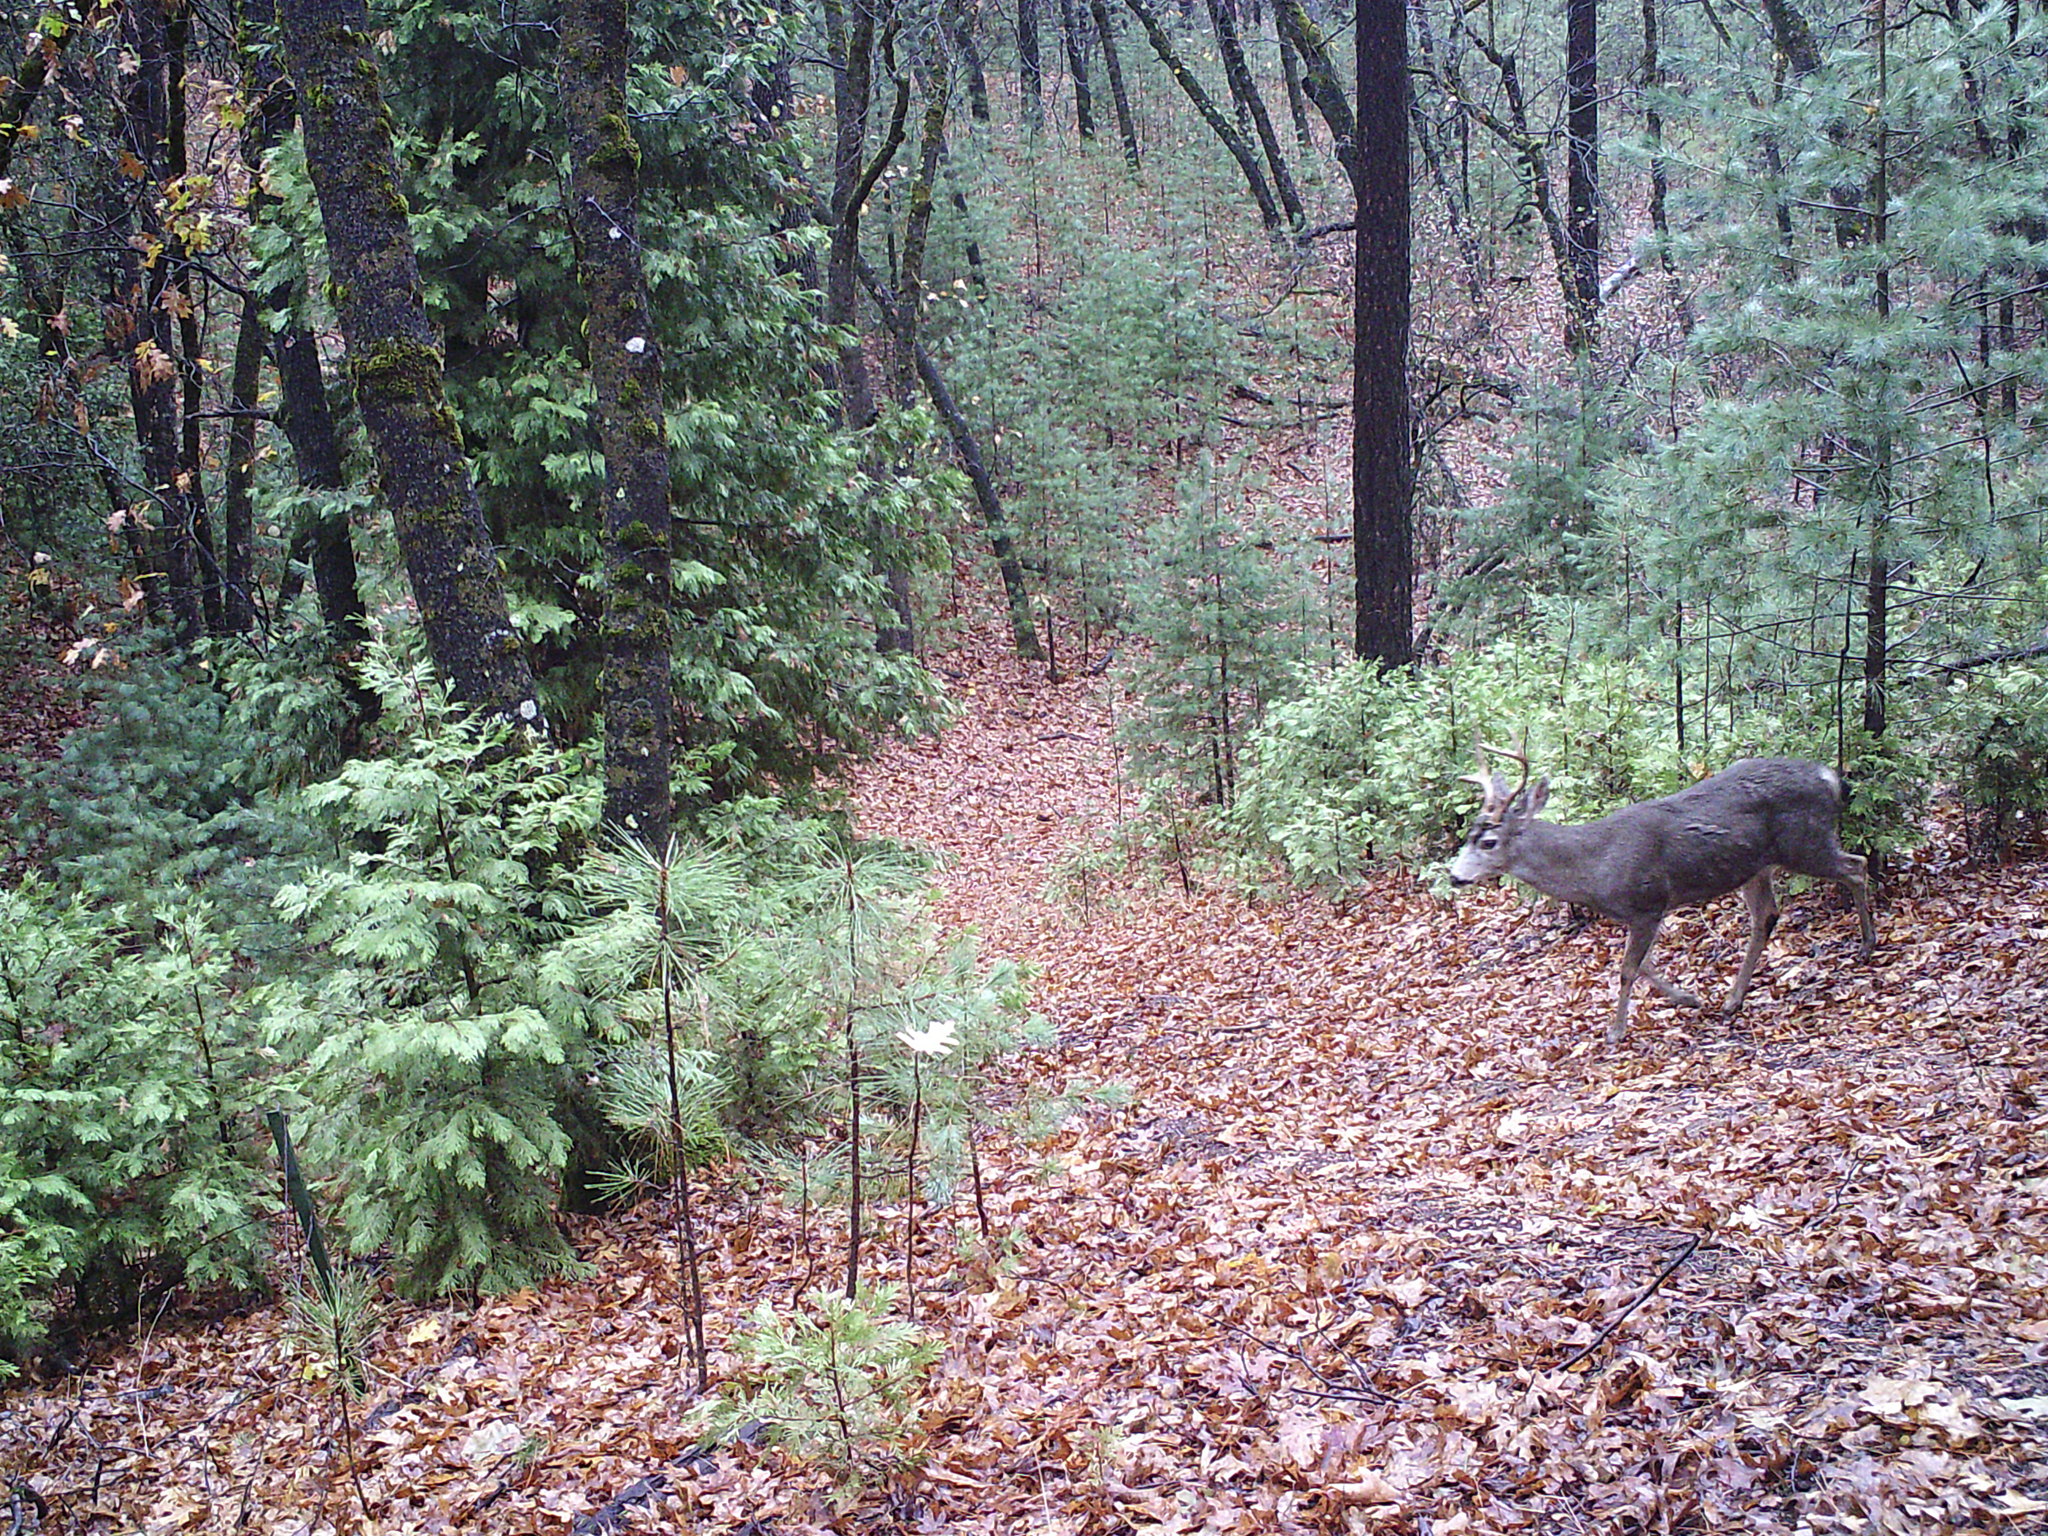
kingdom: Animalia
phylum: Chordata
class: Mammalia
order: Artiodactyla
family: Cervidae
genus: Odocoileus
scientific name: Odocoileus hemionus
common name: Mule deer
